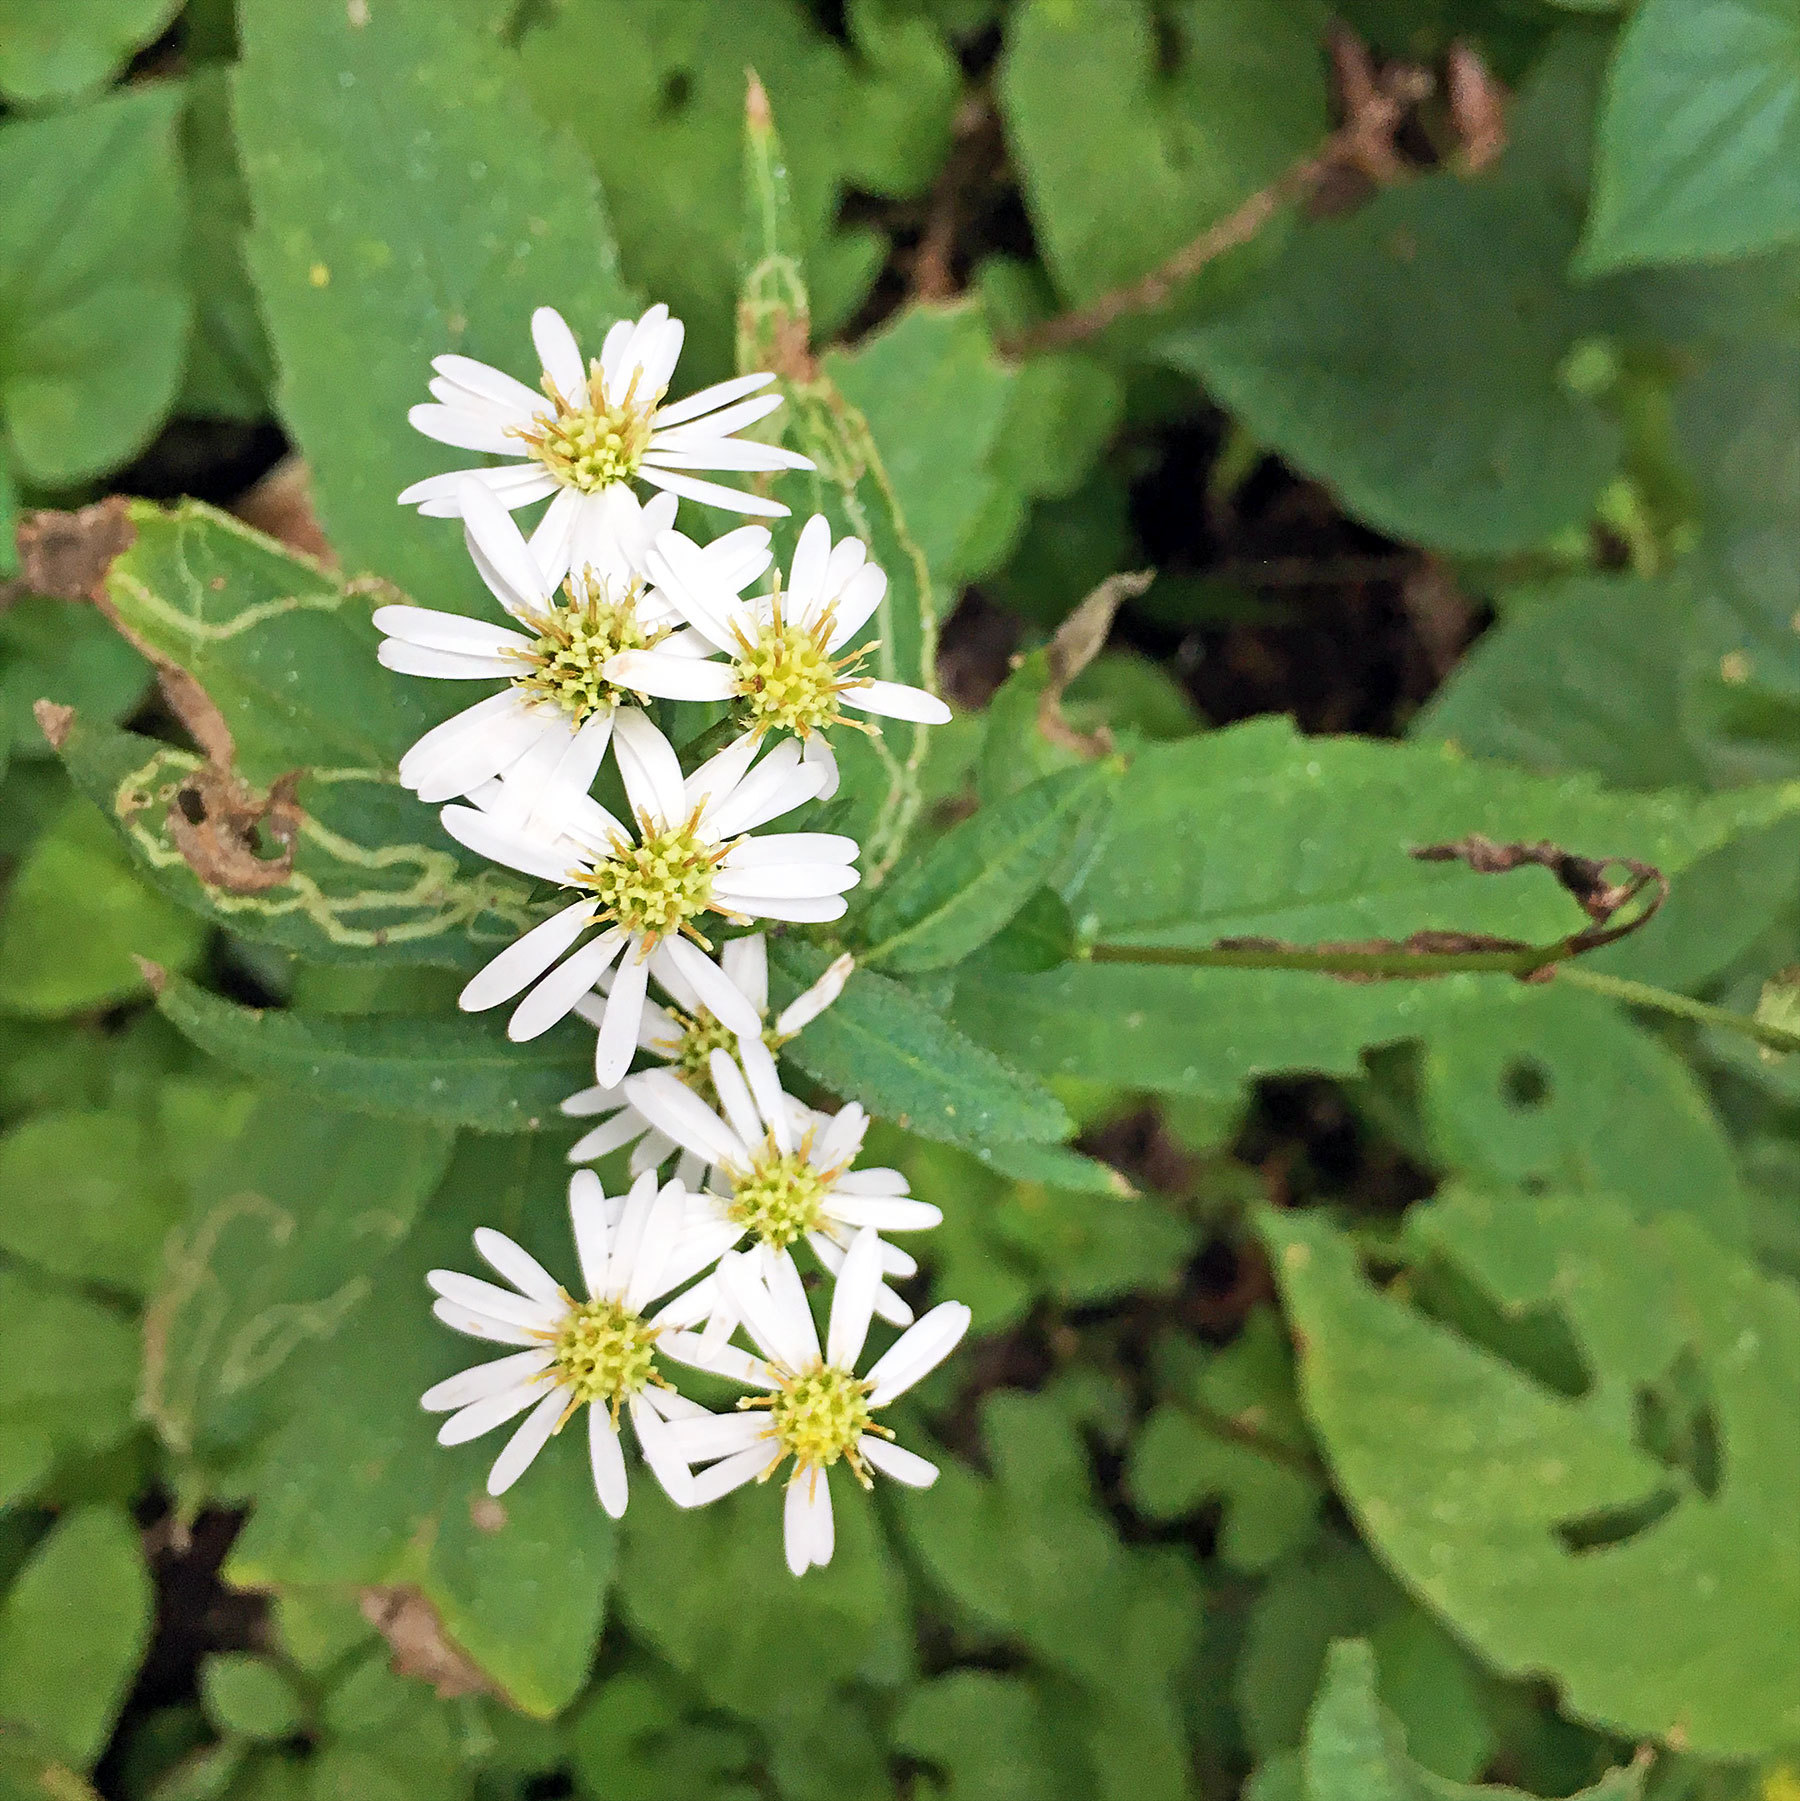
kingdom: Plantae
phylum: Tracheophyta
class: Magnoliopsida
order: Asterales
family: Asteraceae
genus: Aster
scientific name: Aster ageratoides
